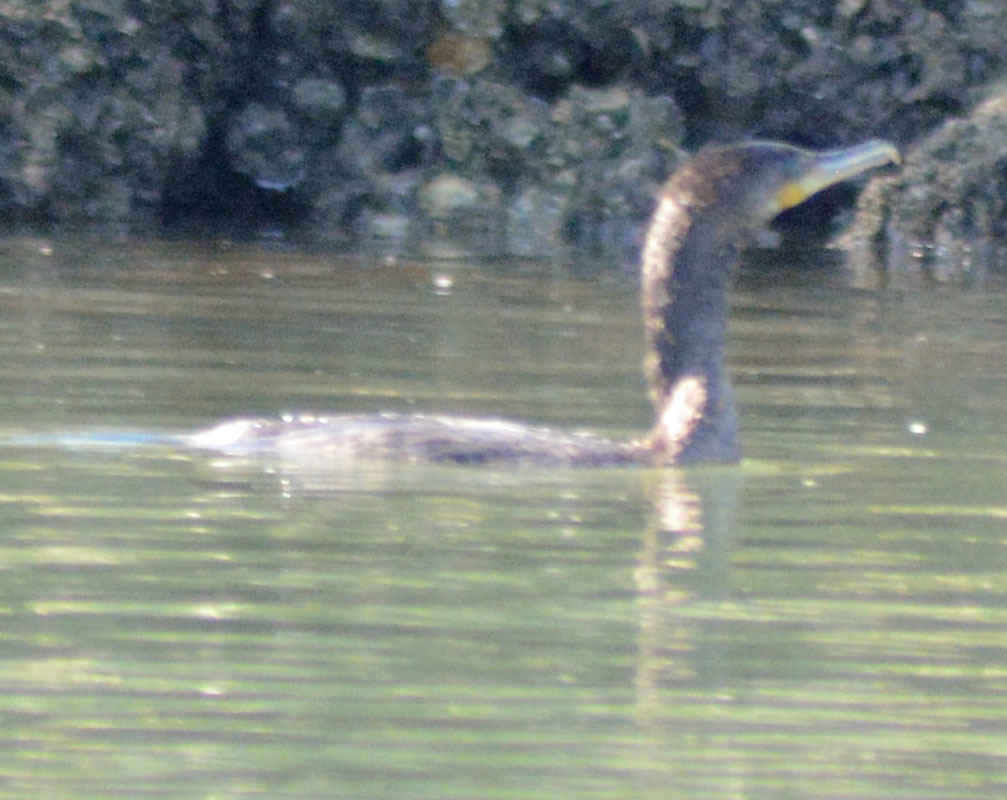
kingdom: Animalia
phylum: Chordata
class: Aves
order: Suliformes
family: Phalacrocoracidae
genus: Phalacrocorax
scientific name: Phalacrocorax brasilianus
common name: Neotropic cormorant
